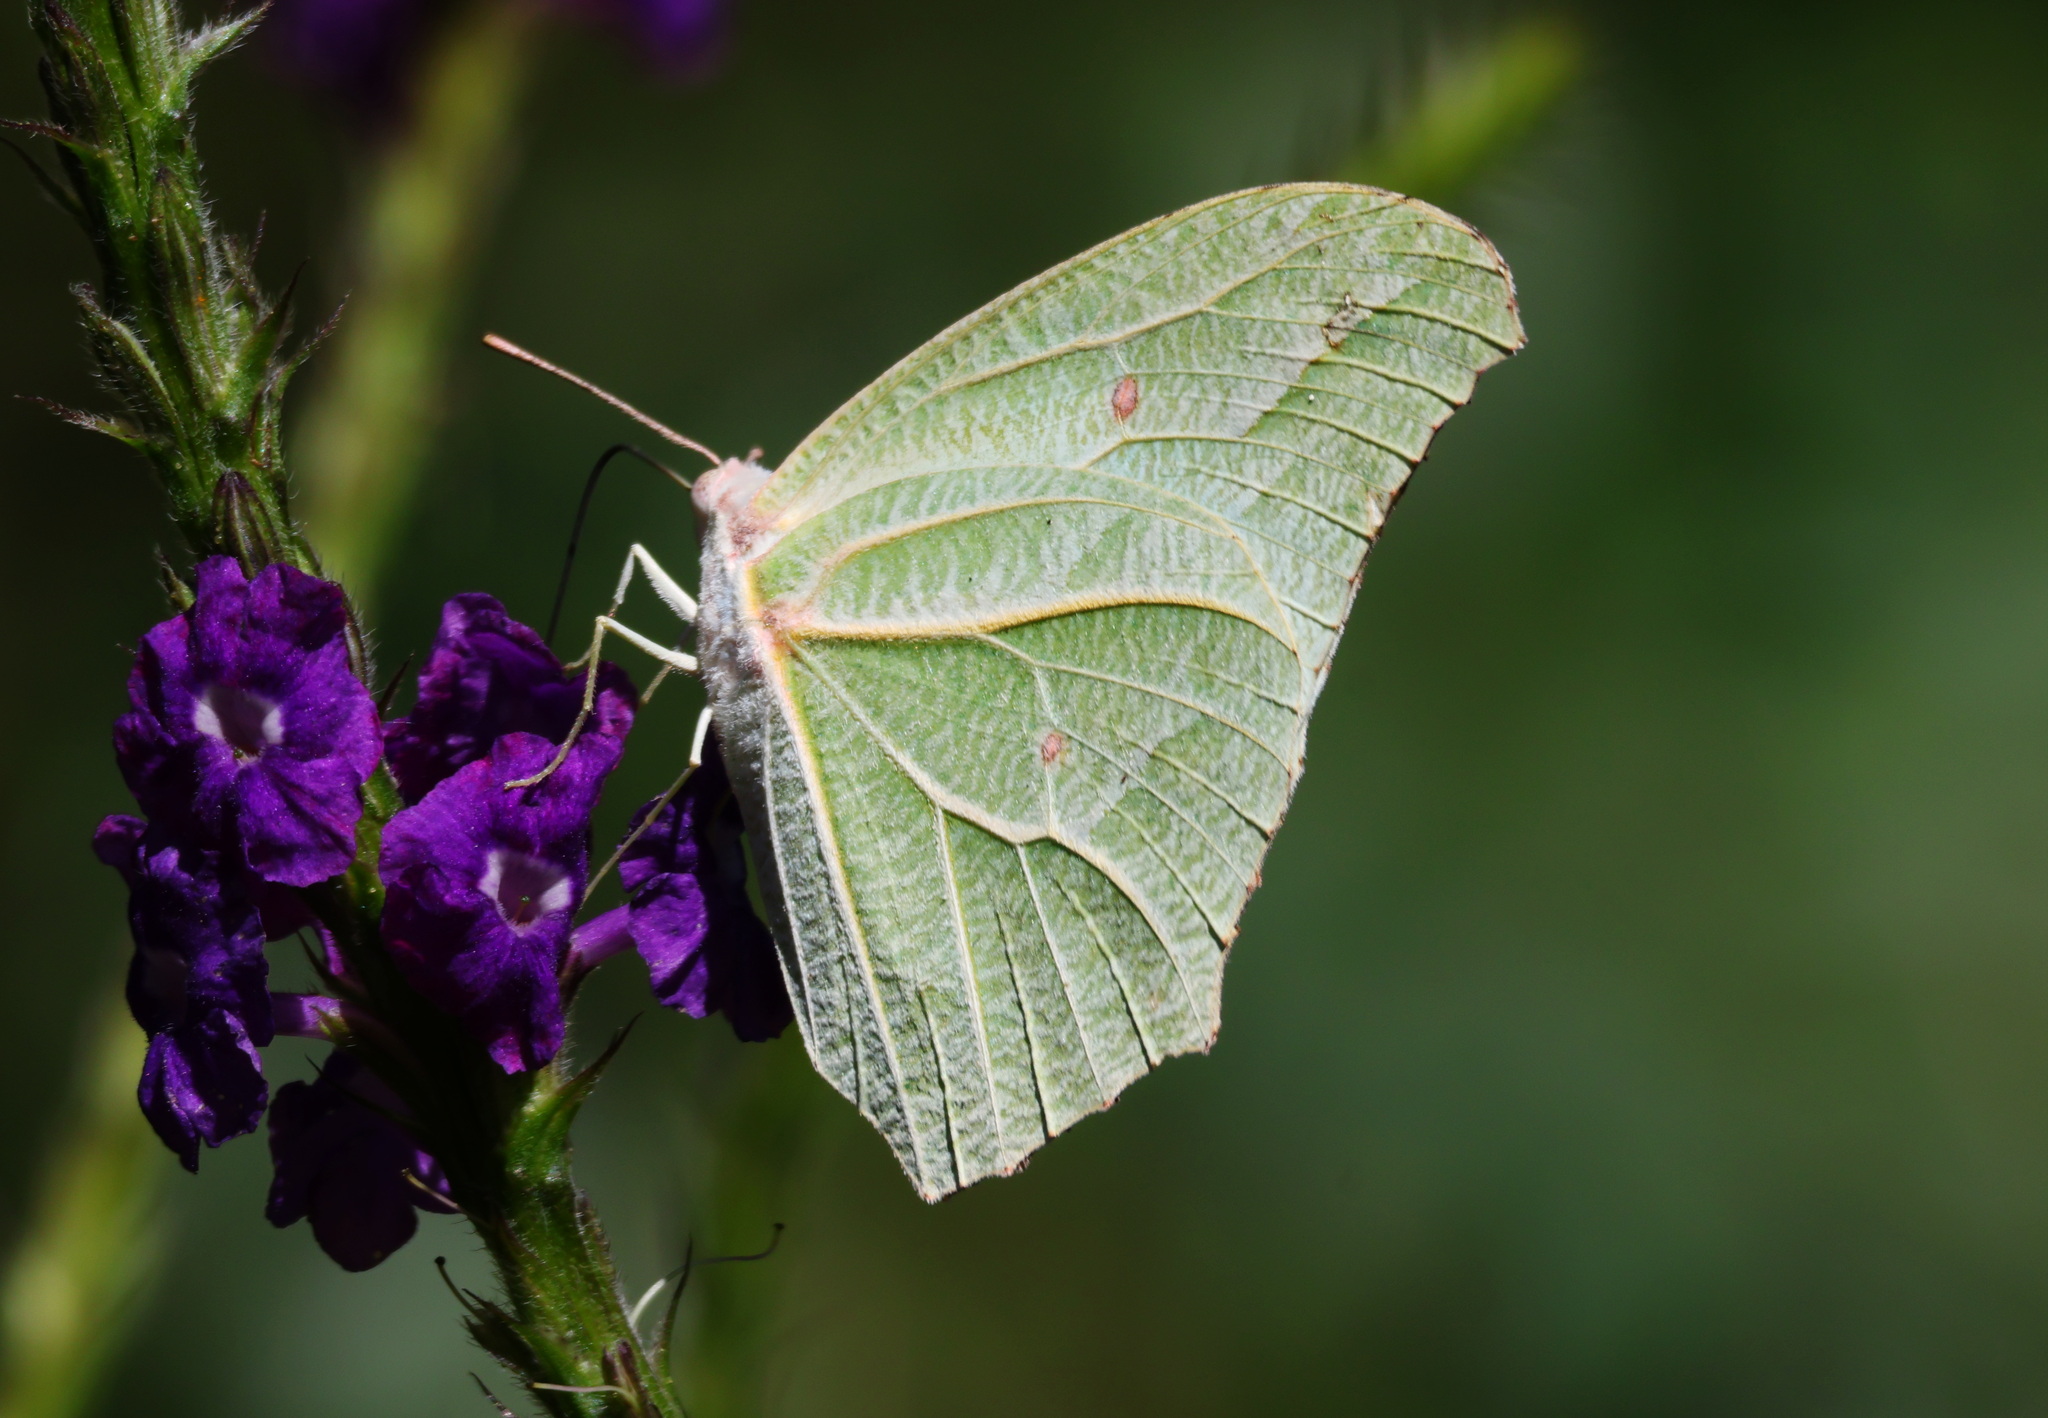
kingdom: Animalia
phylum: Arthropoda
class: Insecta
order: Lepidoptera
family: Pieridae
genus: Anteos
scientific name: Anteos clorinde
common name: White angled sulphur
